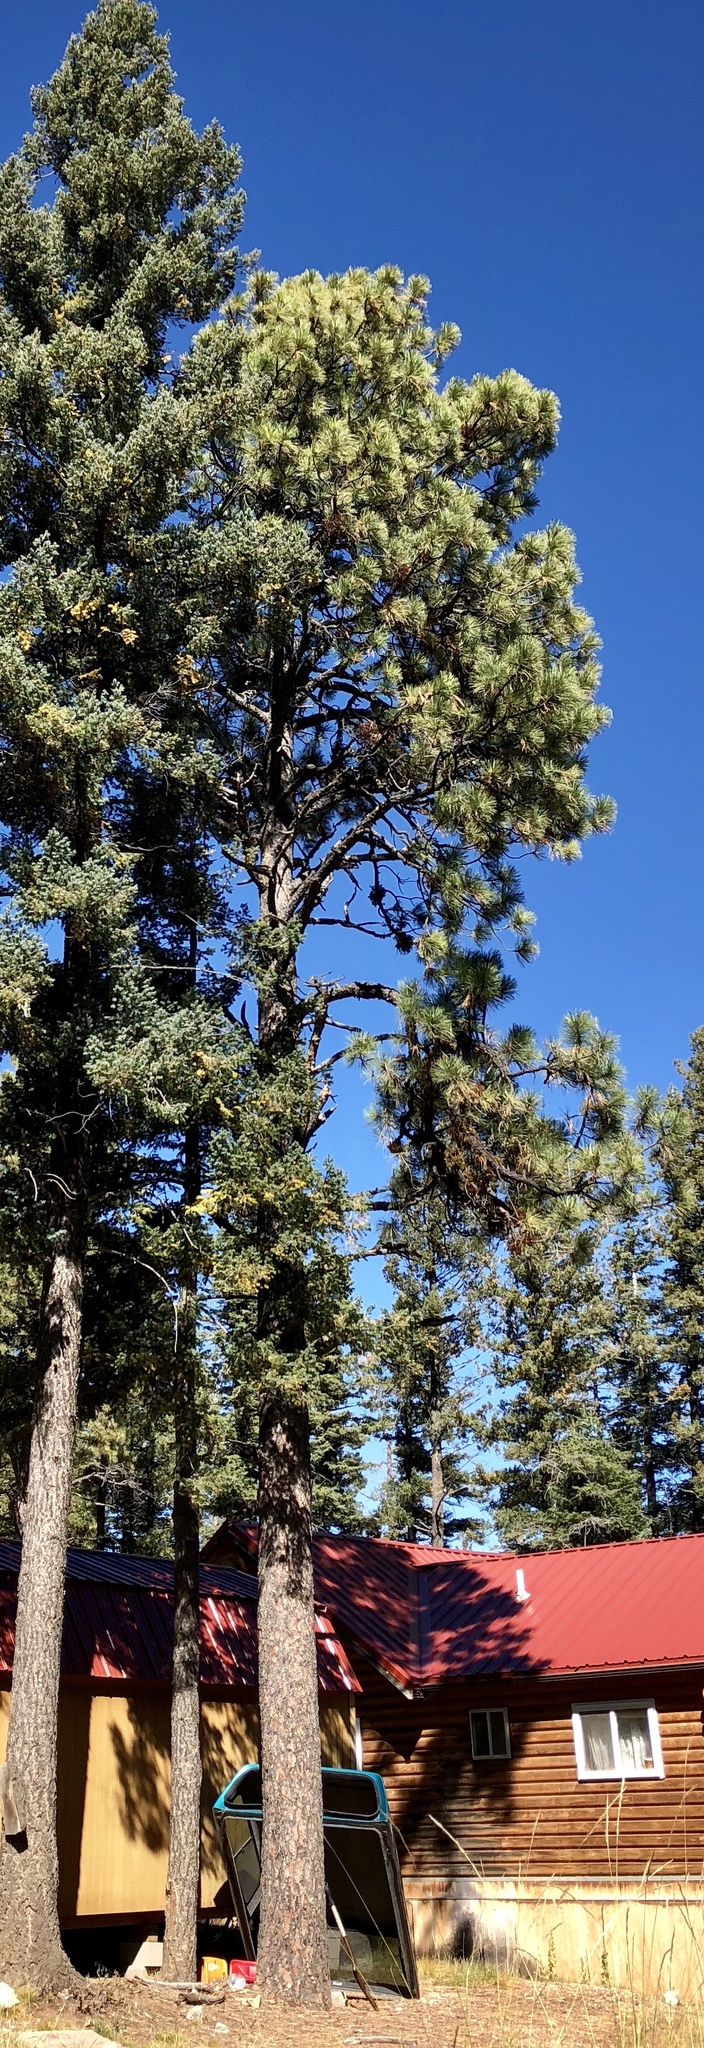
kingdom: Plantae
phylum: Tracheophyta
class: Pinopsida
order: Pinales
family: Pinaceae
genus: Pinus
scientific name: Pinus ponderosa
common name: Western yellow-pine
